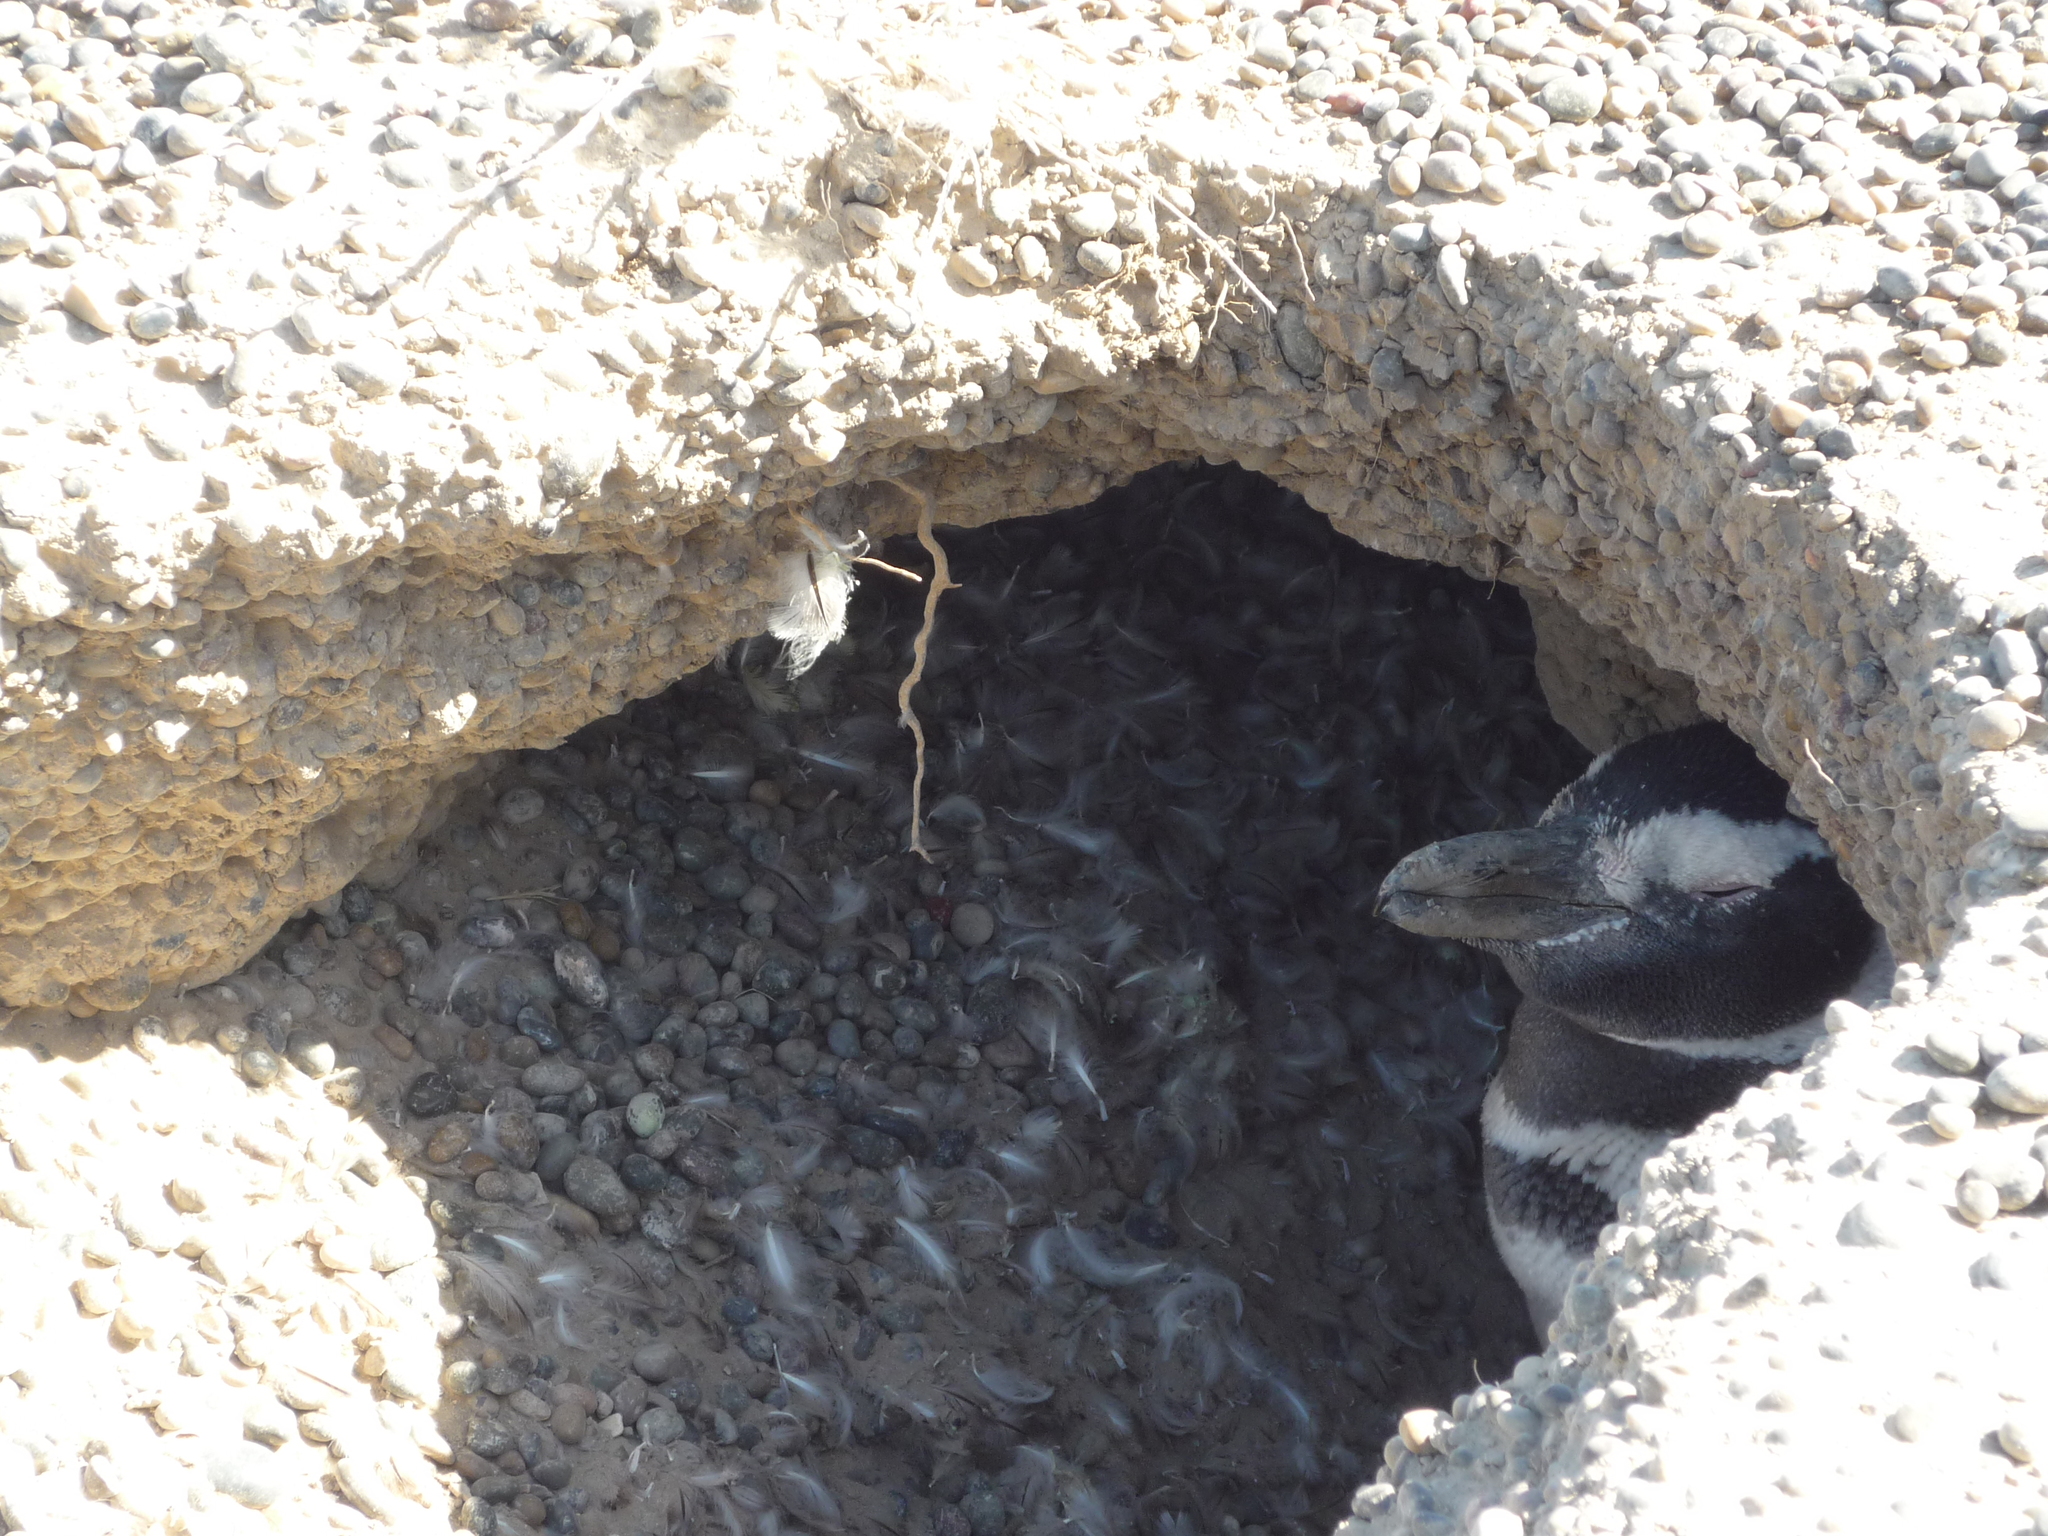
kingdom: Animalia
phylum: Chordata
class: Aves
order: Sphenisciformes
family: Spheniscidae
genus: Spheniscus
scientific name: Spheniscus magellanicus
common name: Magellanic penguin
